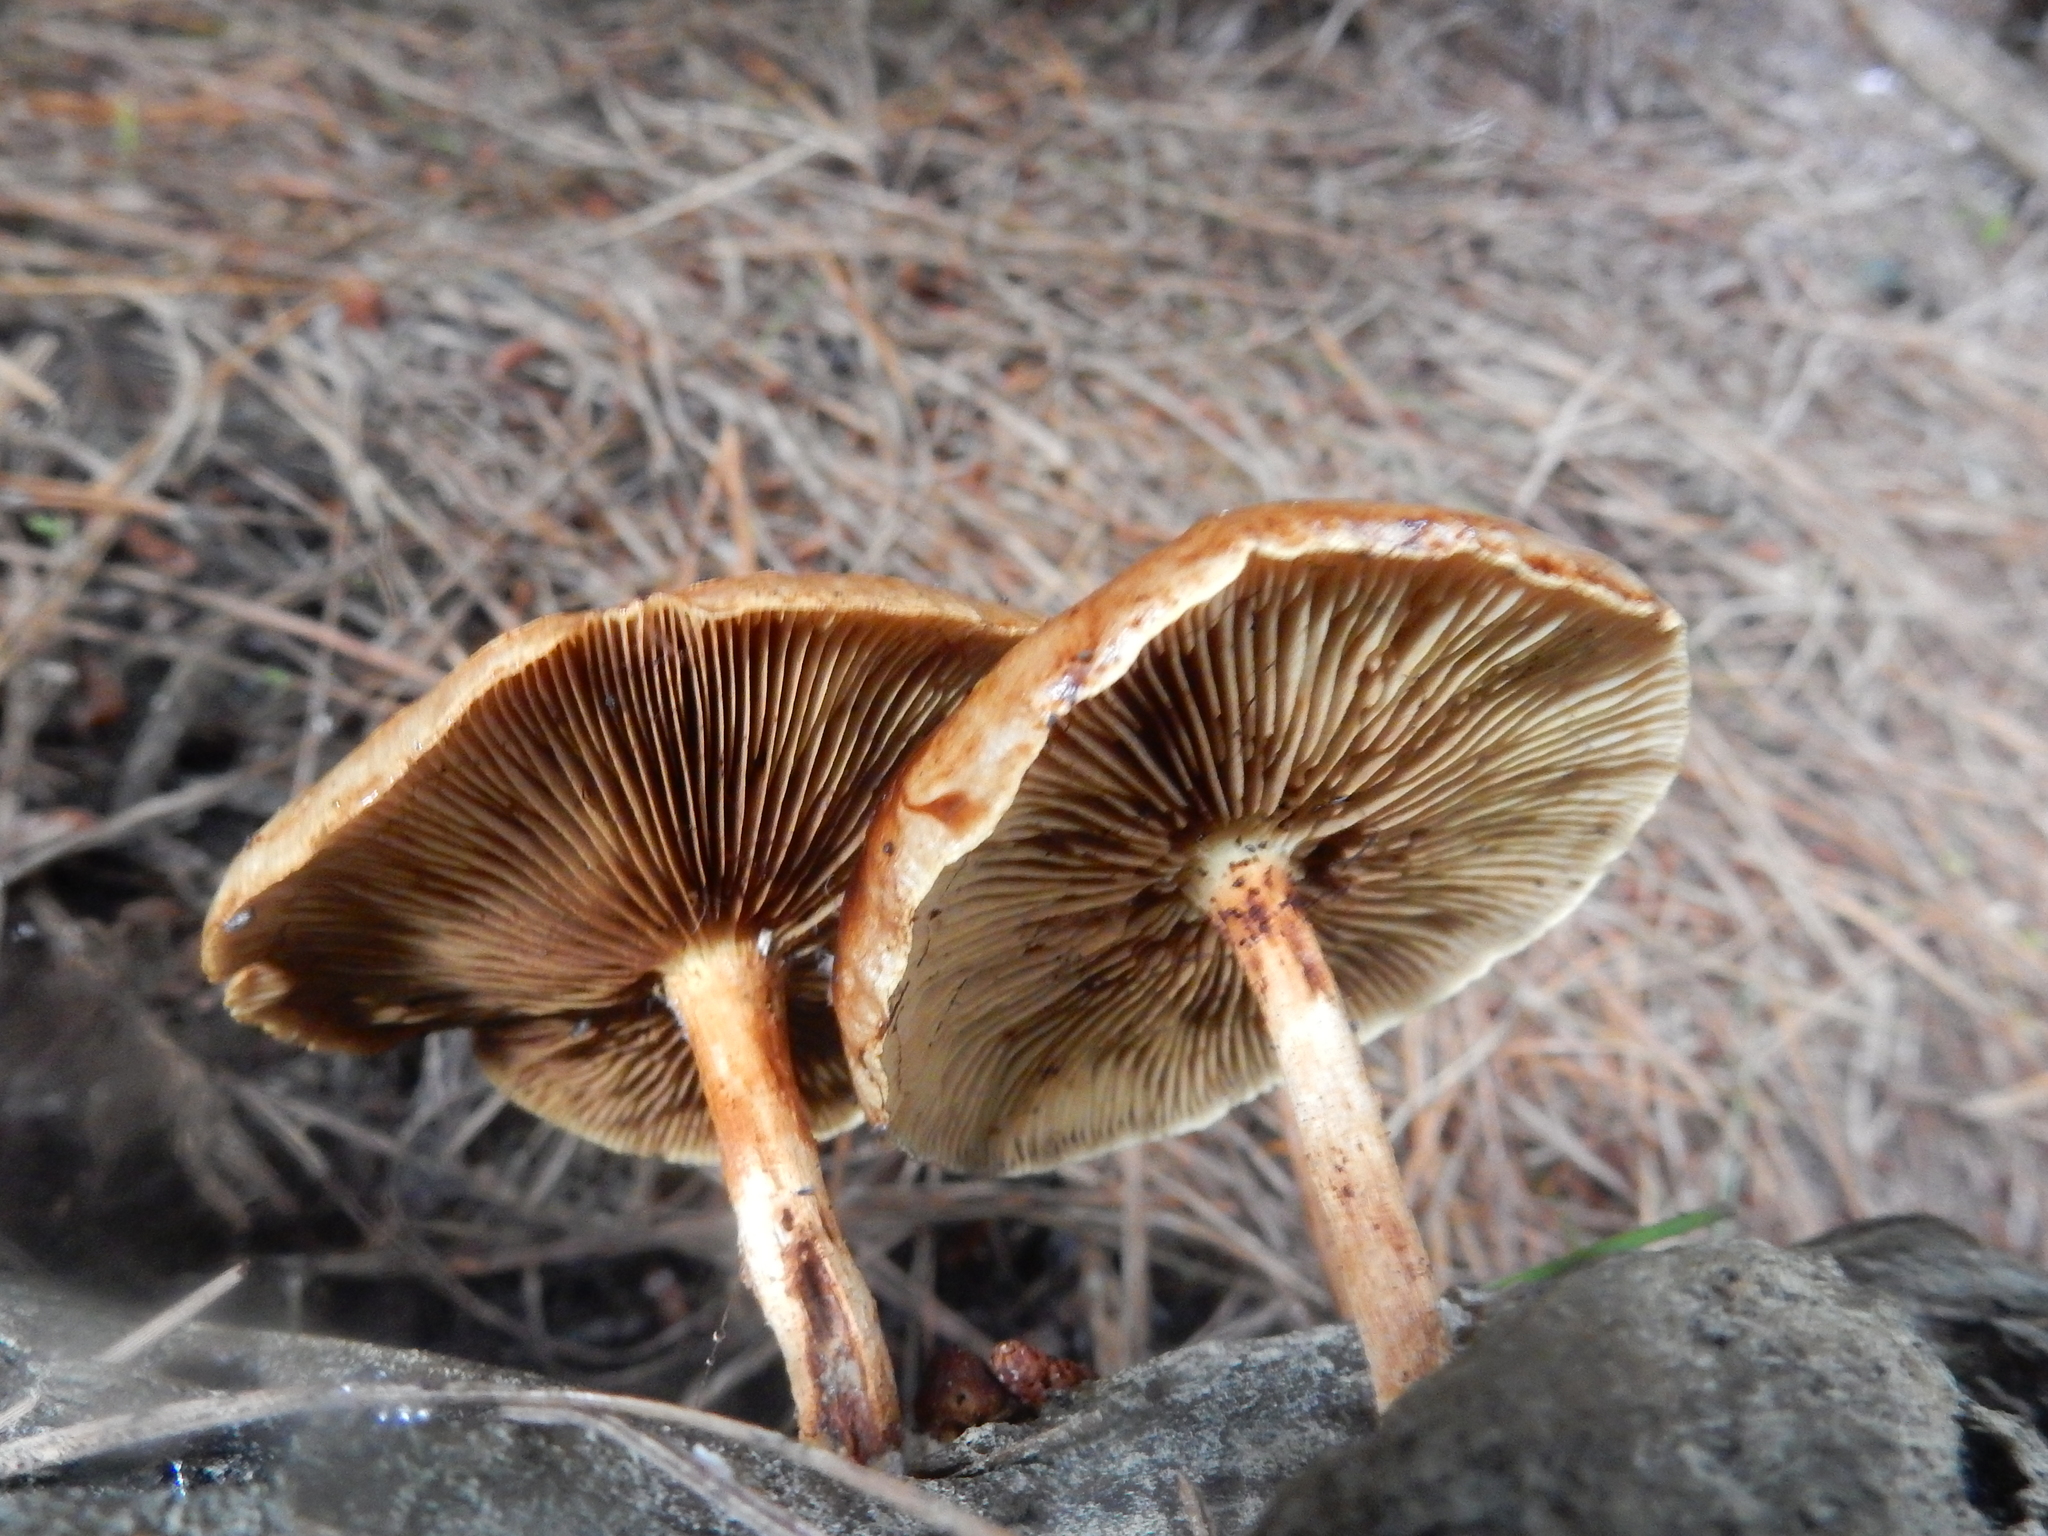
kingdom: Fungi
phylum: Basidiomycota
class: Agaricomycetes
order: Agaricales
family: Strophariaceae
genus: Pholiota
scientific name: Pholiota multicingulata
